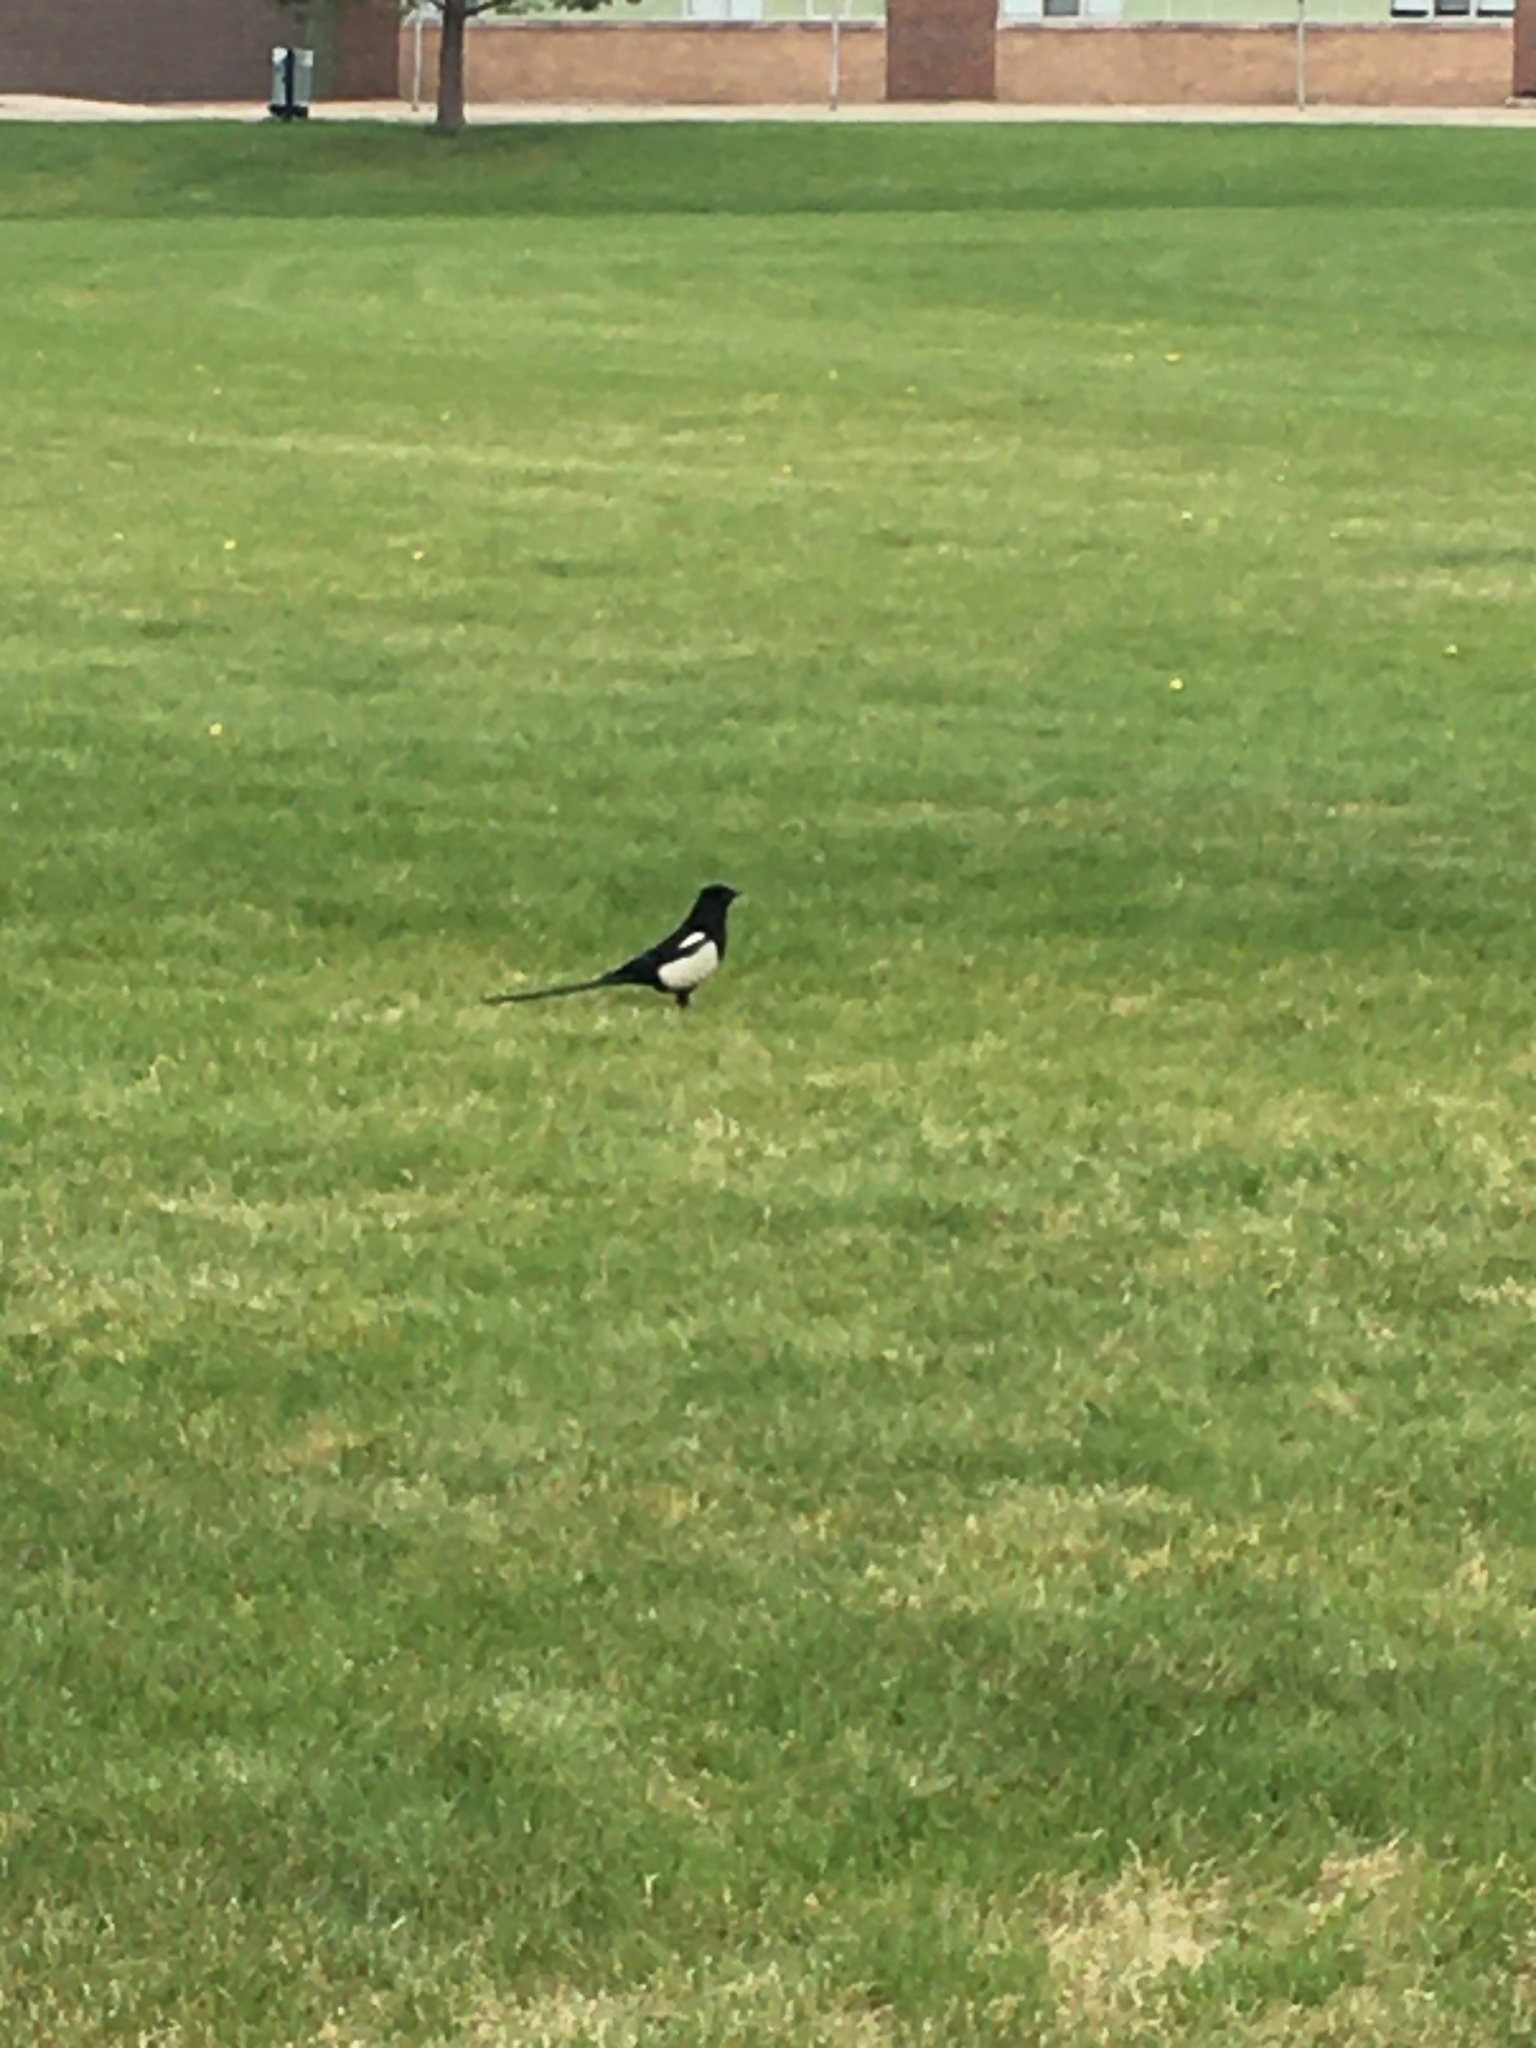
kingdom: Animalia
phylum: Chordata
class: Aves
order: Passeriformes
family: Corvidae
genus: Pica
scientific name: Pica hudsonia
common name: Black-billed magpie
